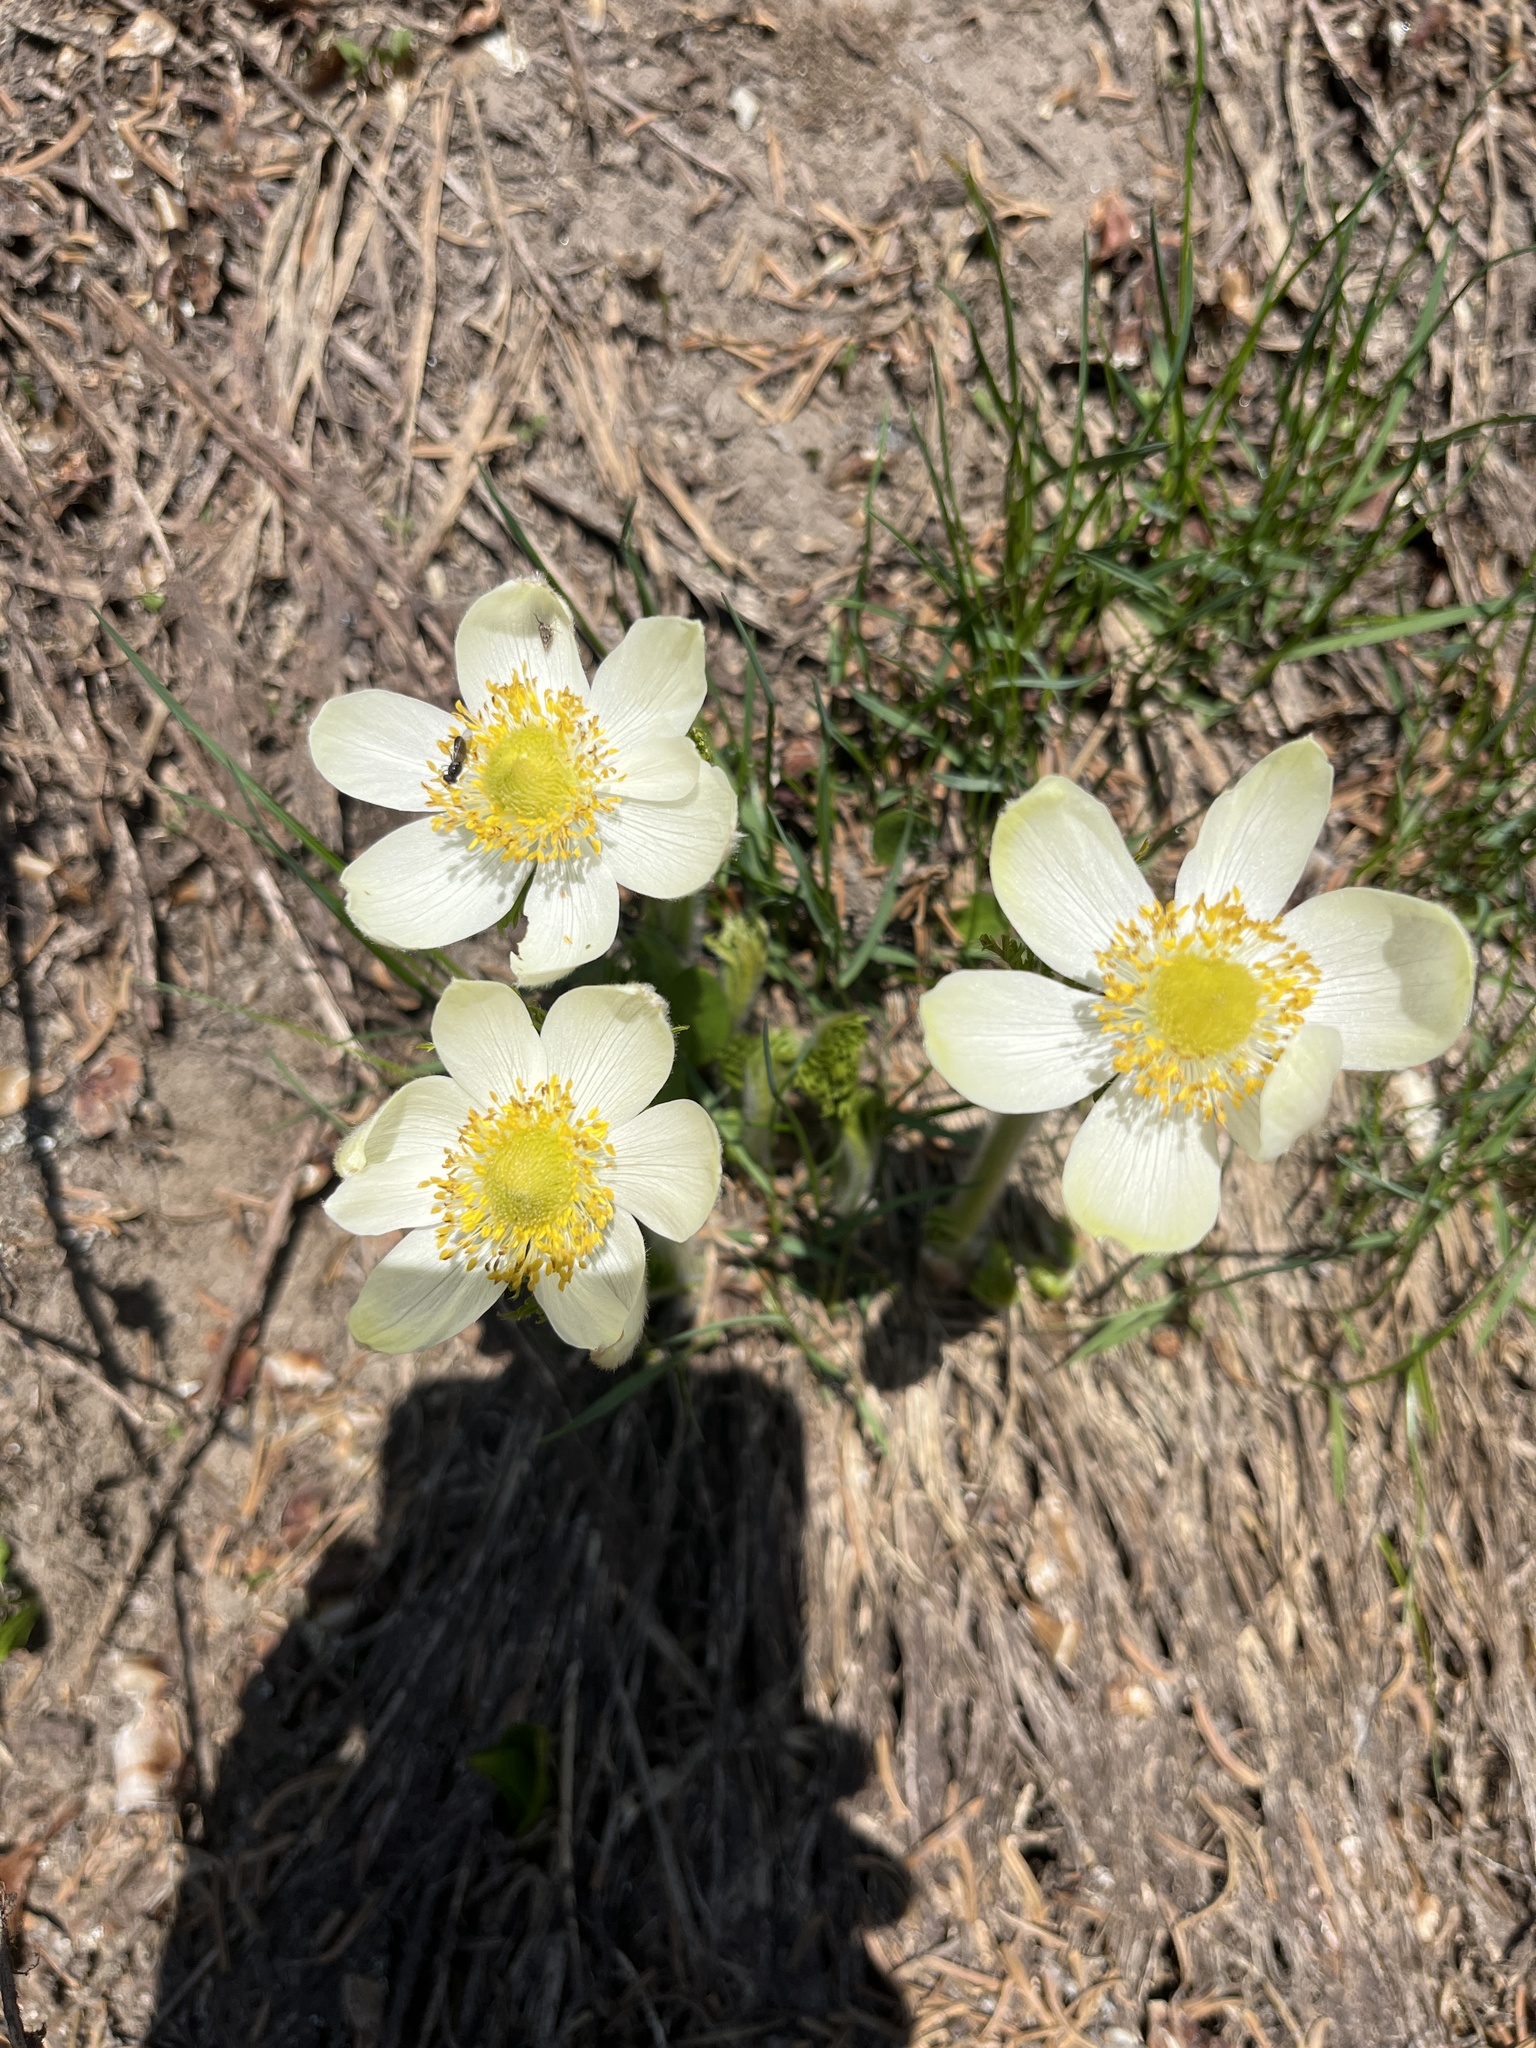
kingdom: Plantae
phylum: Tracheophyta
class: Magnoliopsida
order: Ranunculales
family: Ranunculaceae
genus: Pulsatilla
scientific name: Pulsatilla occidentalis
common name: Mountain pasqueflower
